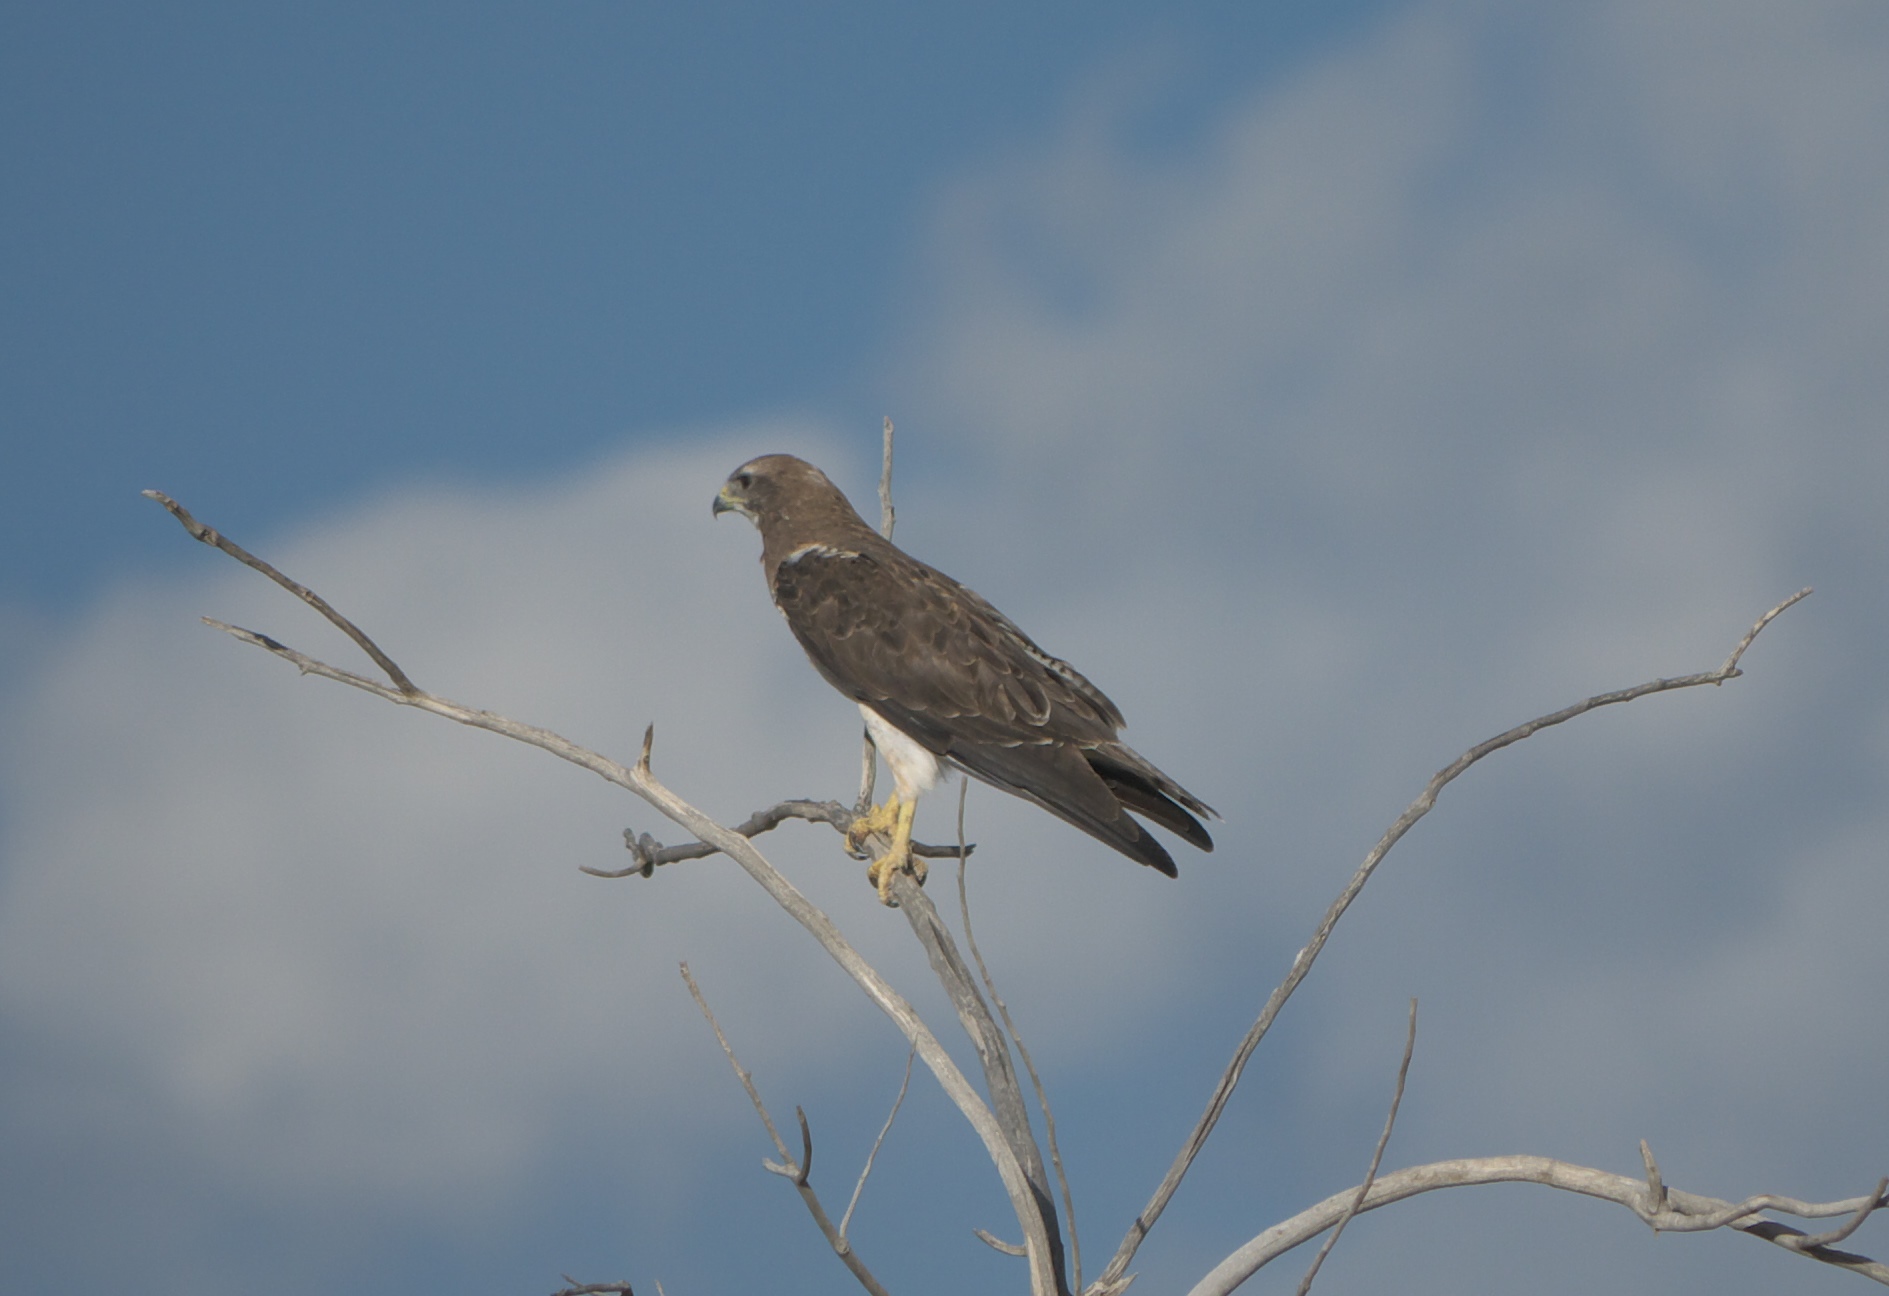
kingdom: Animalia
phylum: Chordata
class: Aves
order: Accipitriformes
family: Accipitridae
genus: Buteo
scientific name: Buteo swainsoni
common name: Swainson's hawk
